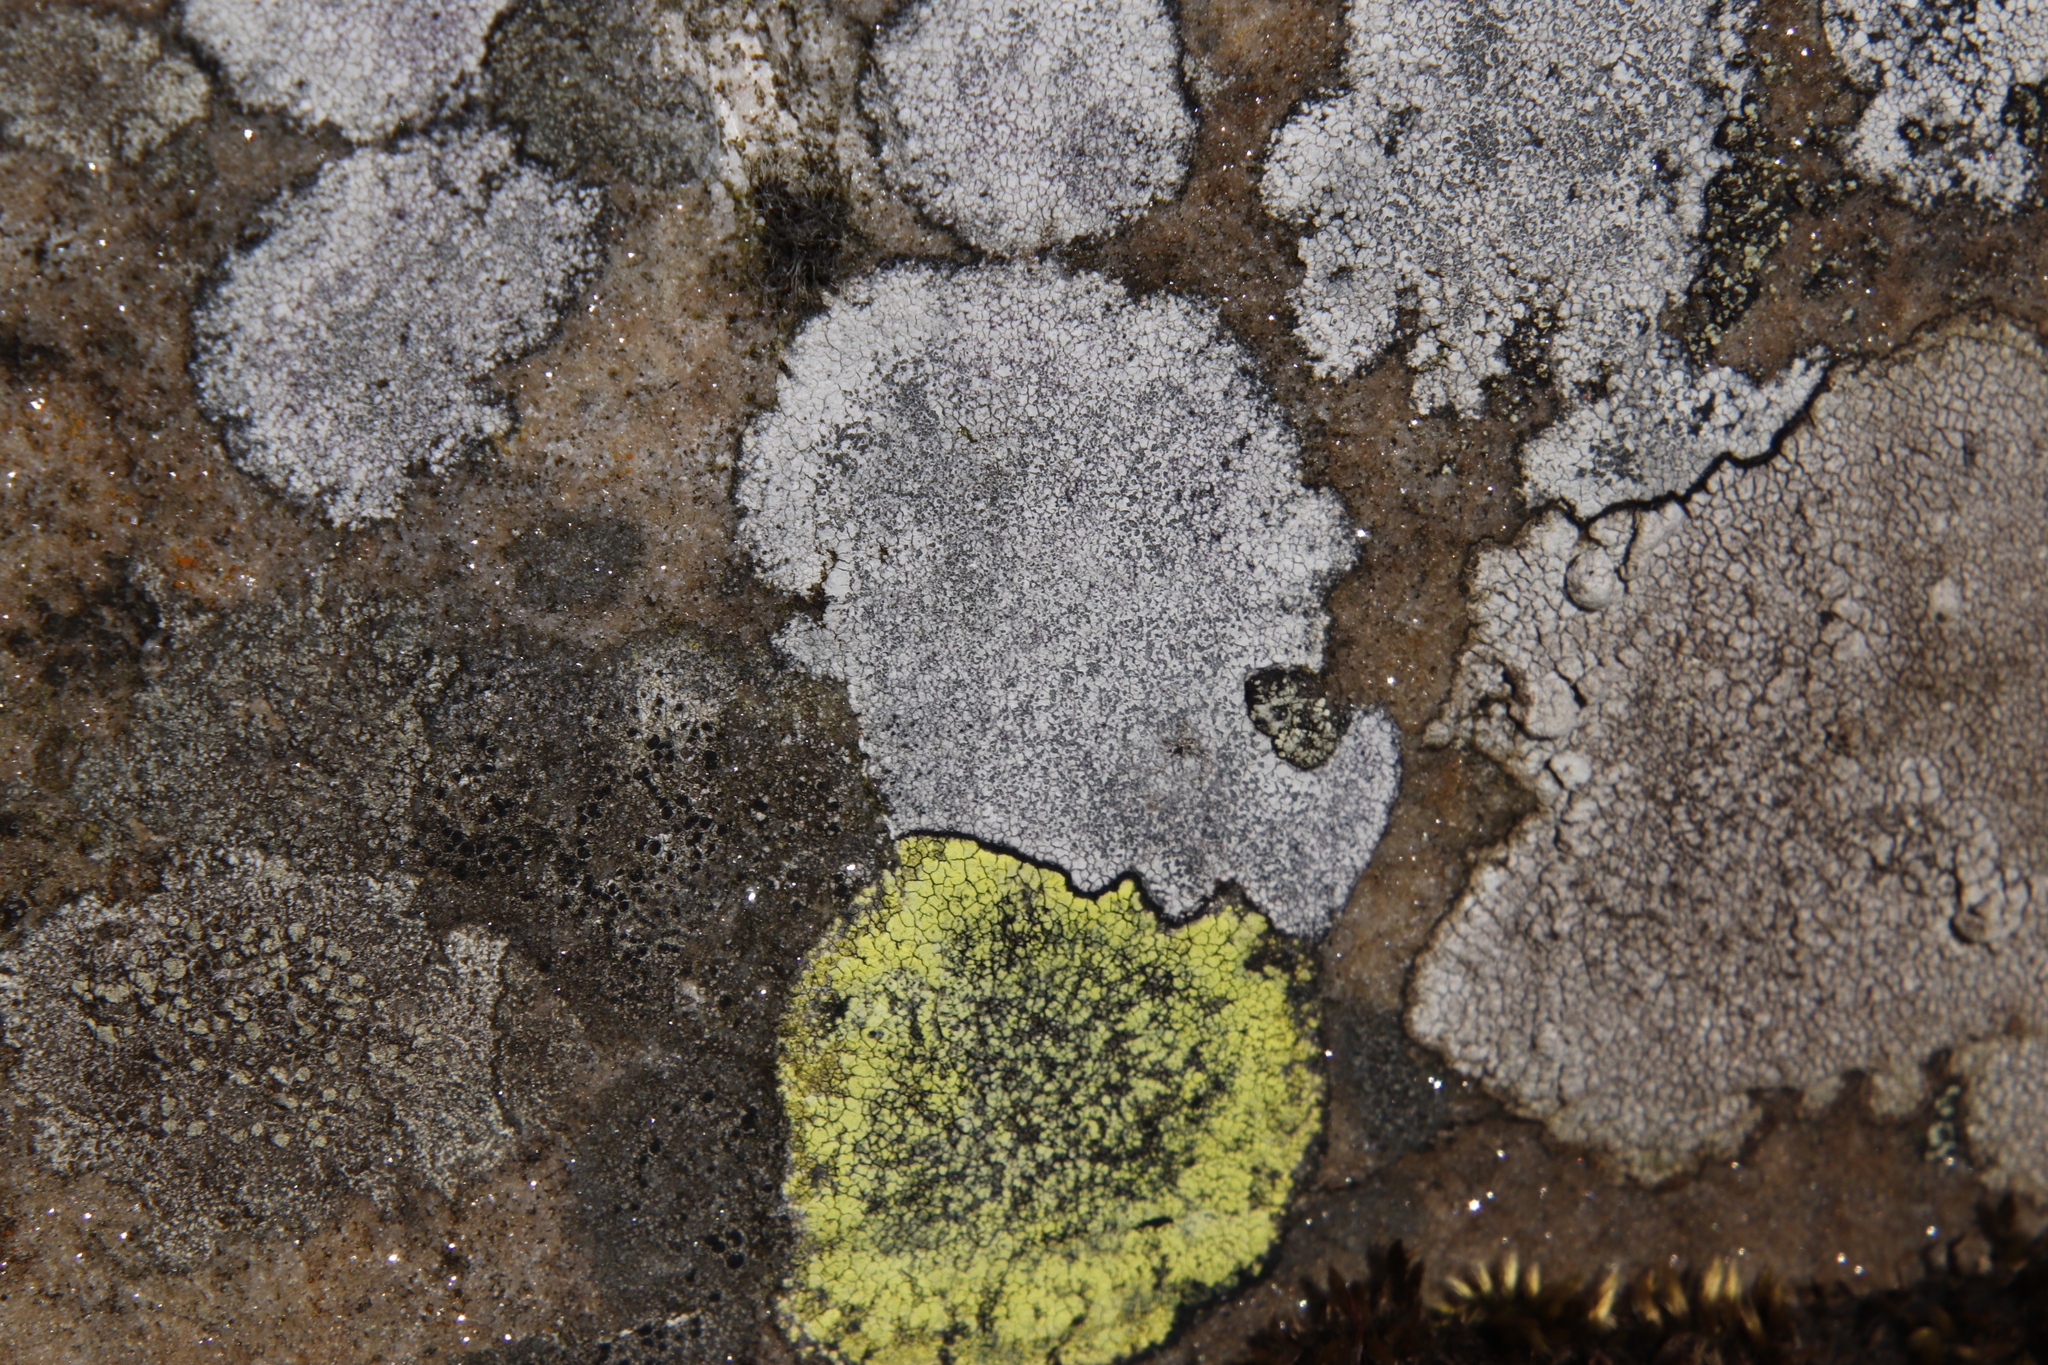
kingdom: Fungi
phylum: Ascomycota
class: Lecanoromycetes
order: Lecideales
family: Lecideaceae
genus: Porpidia
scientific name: Porpidia tuberculosa
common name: Boulder lichen
